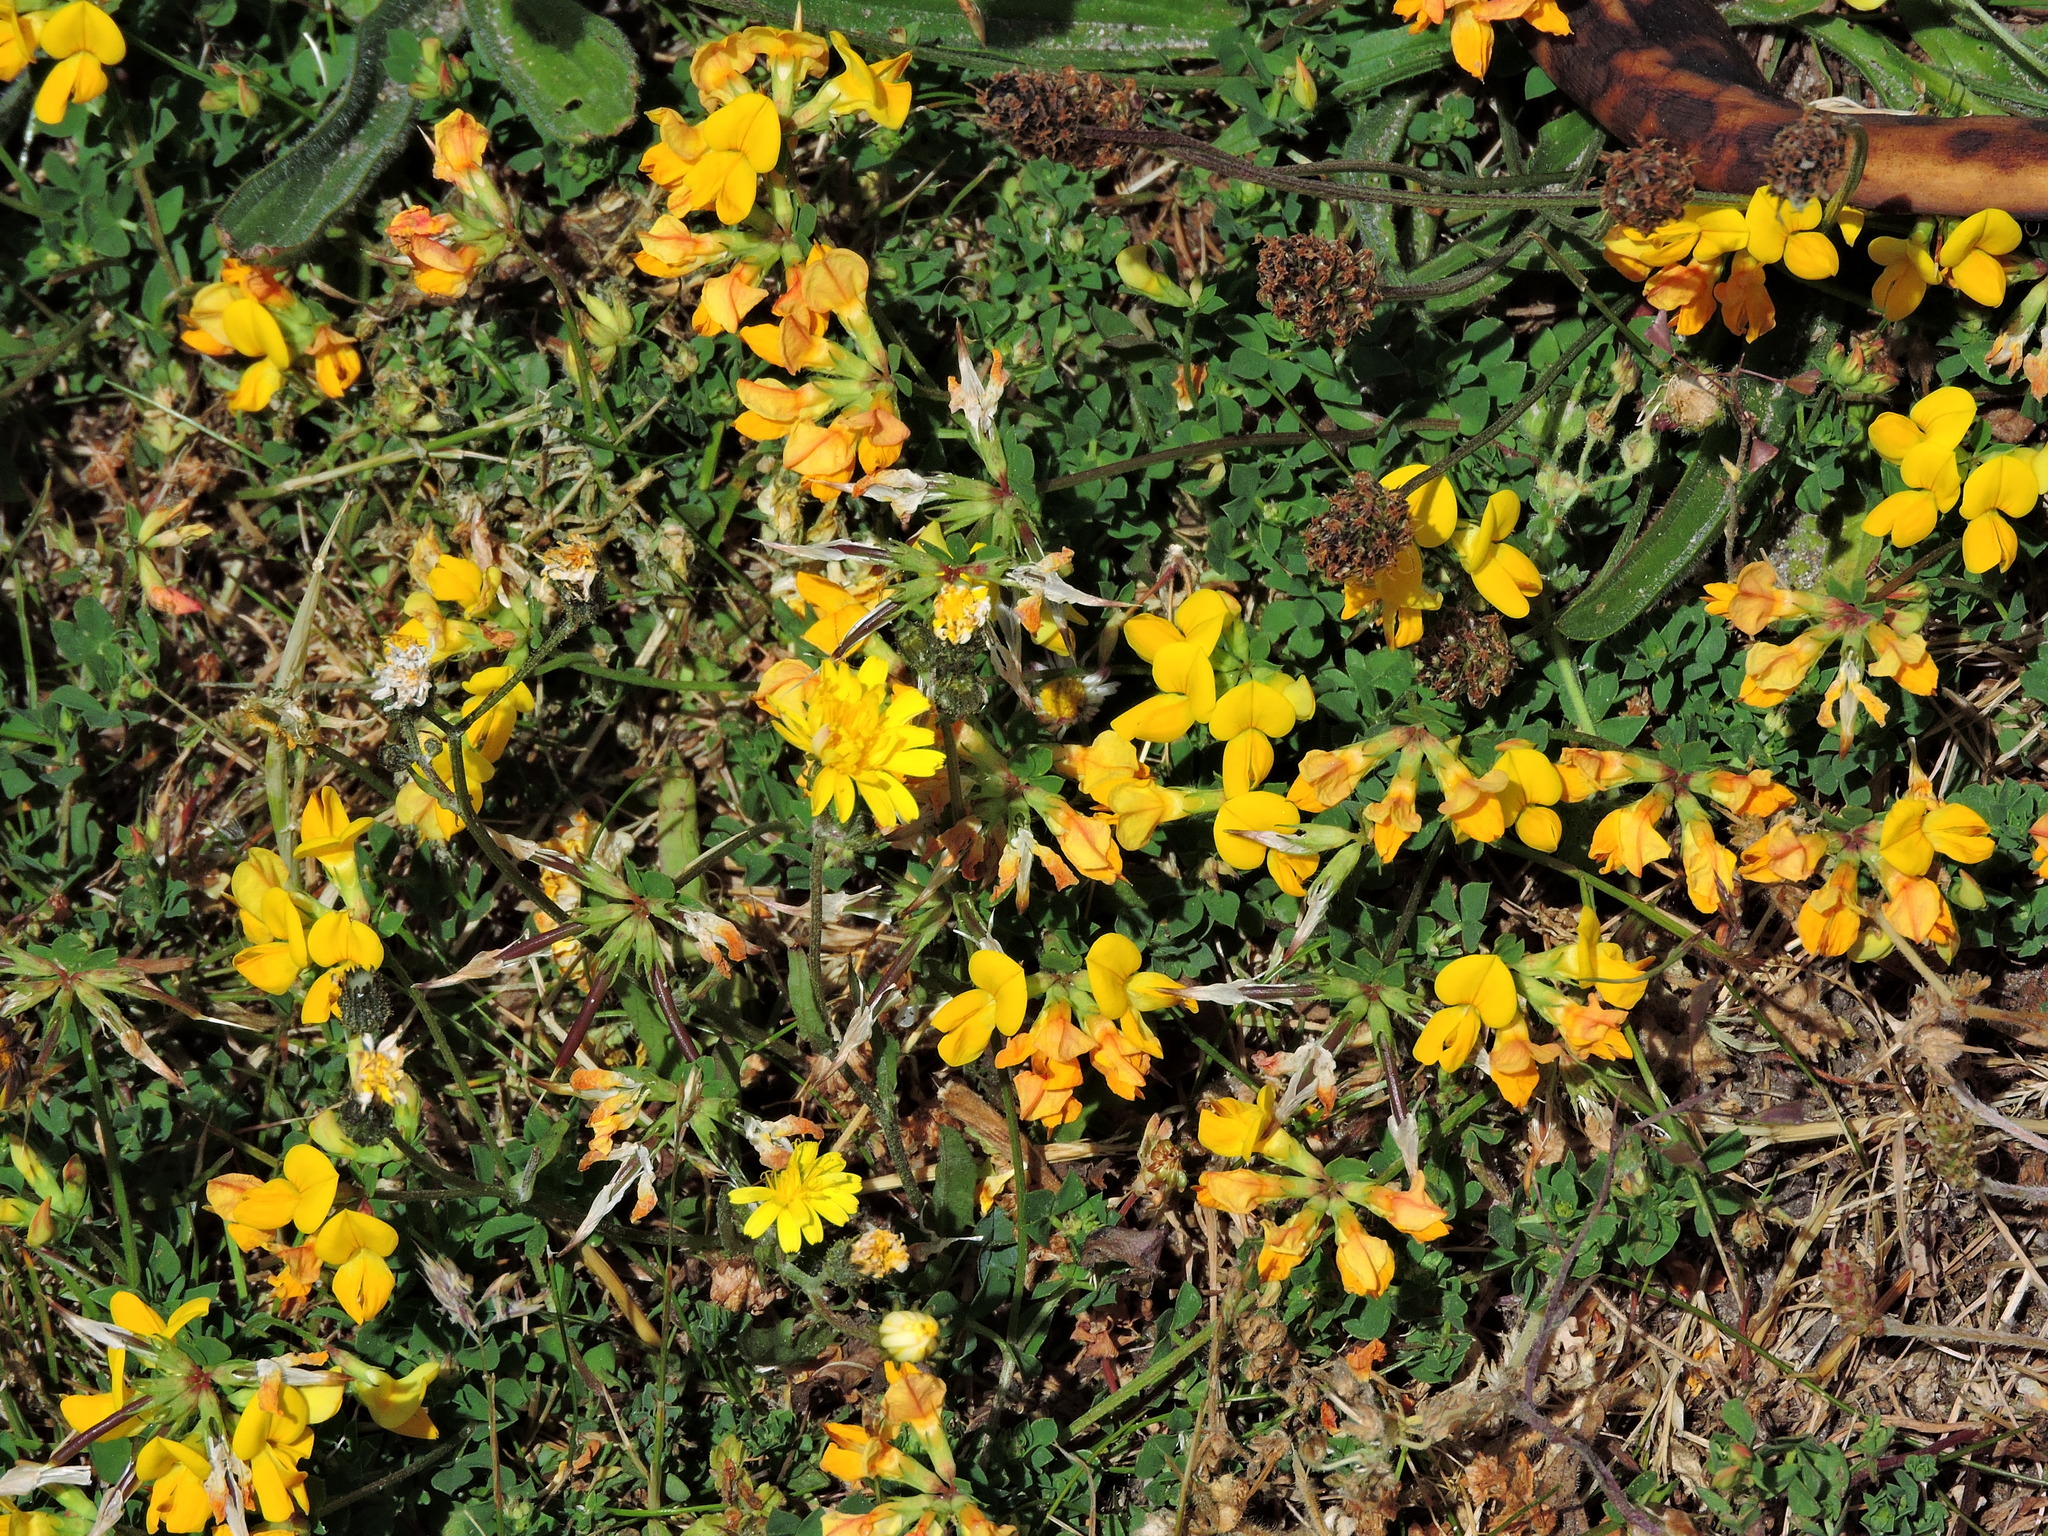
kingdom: Plantae
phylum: Tracheophyta
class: Magnoliopsida
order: Fabales
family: Fabaceae
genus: Lotus
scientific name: Lotus corniculatus
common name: Common bird's-foot-trefoil
